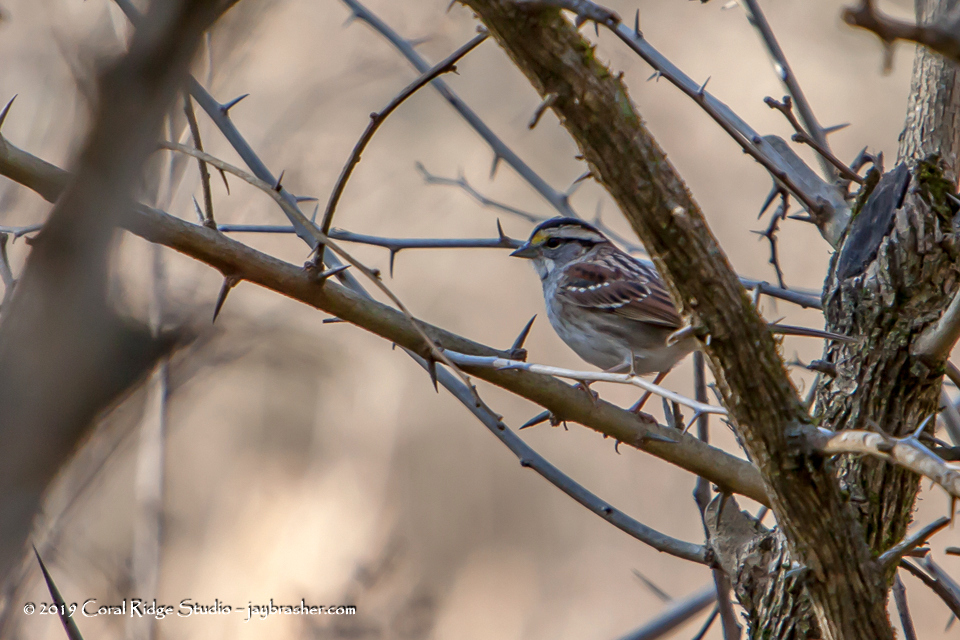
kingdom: Animalia
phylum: Chordata
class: Aves
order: Passeriformes
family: Passerellidae
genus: Zonotrichia
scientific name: Zonotrichia albicollis
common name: White-throated sparrow
